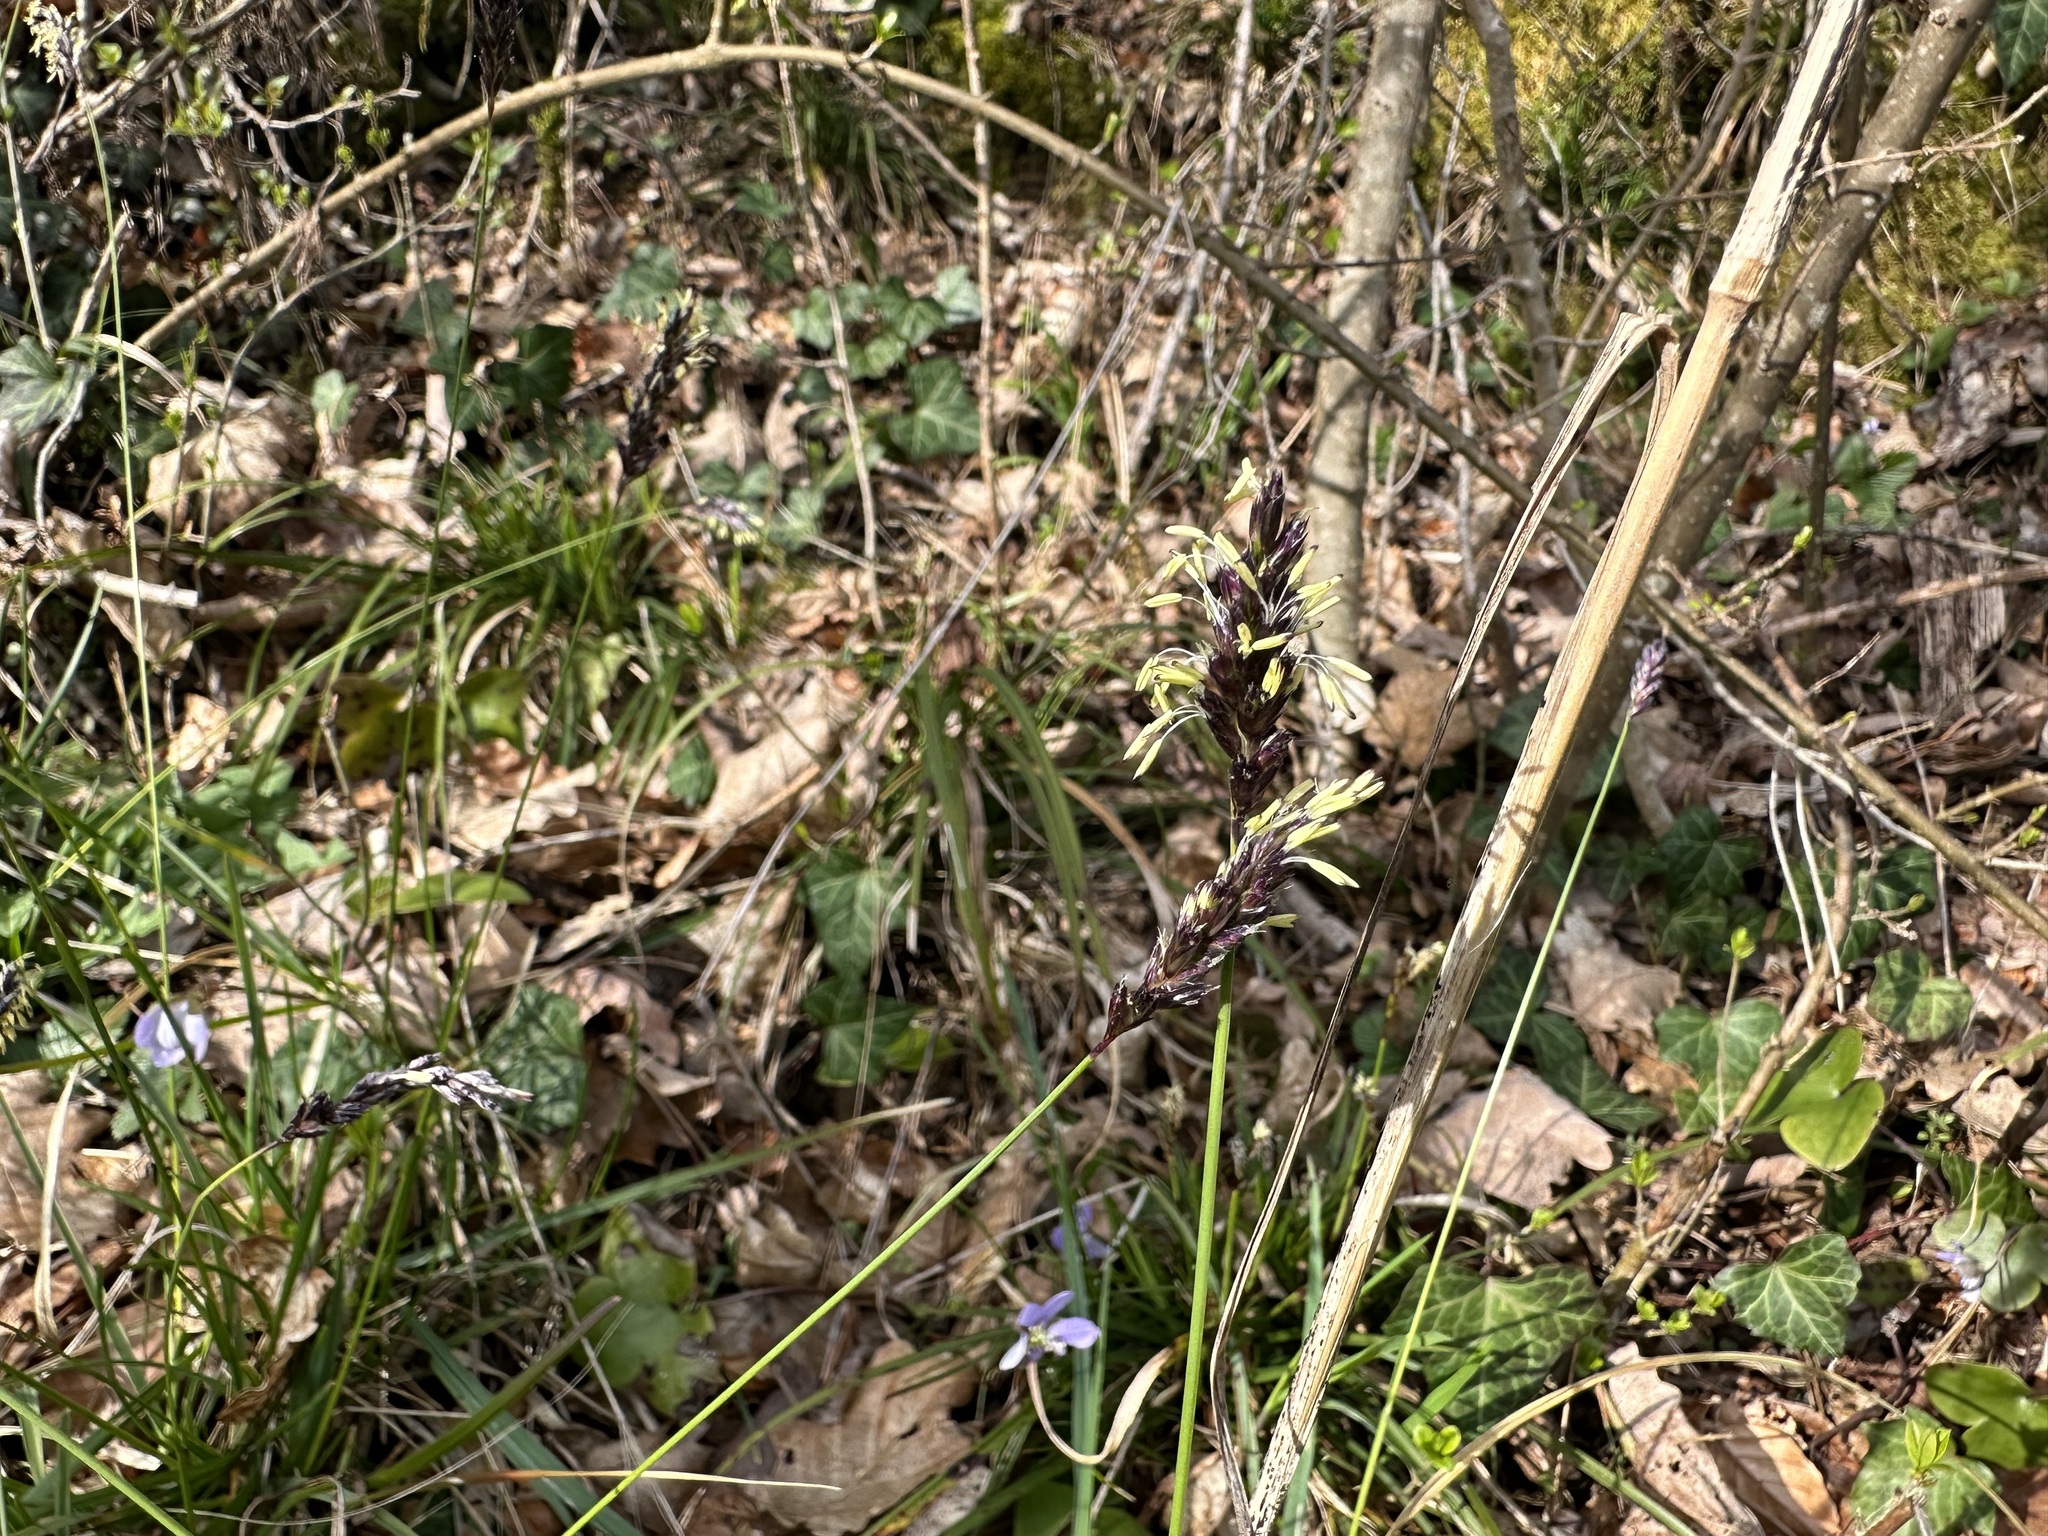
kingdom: Plantae
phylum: Tracheophyta
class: Liliopsida
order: Poales
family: Poaceae
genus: Sesleria
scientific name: Sesleria caerulea
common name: Blue moor-grass
